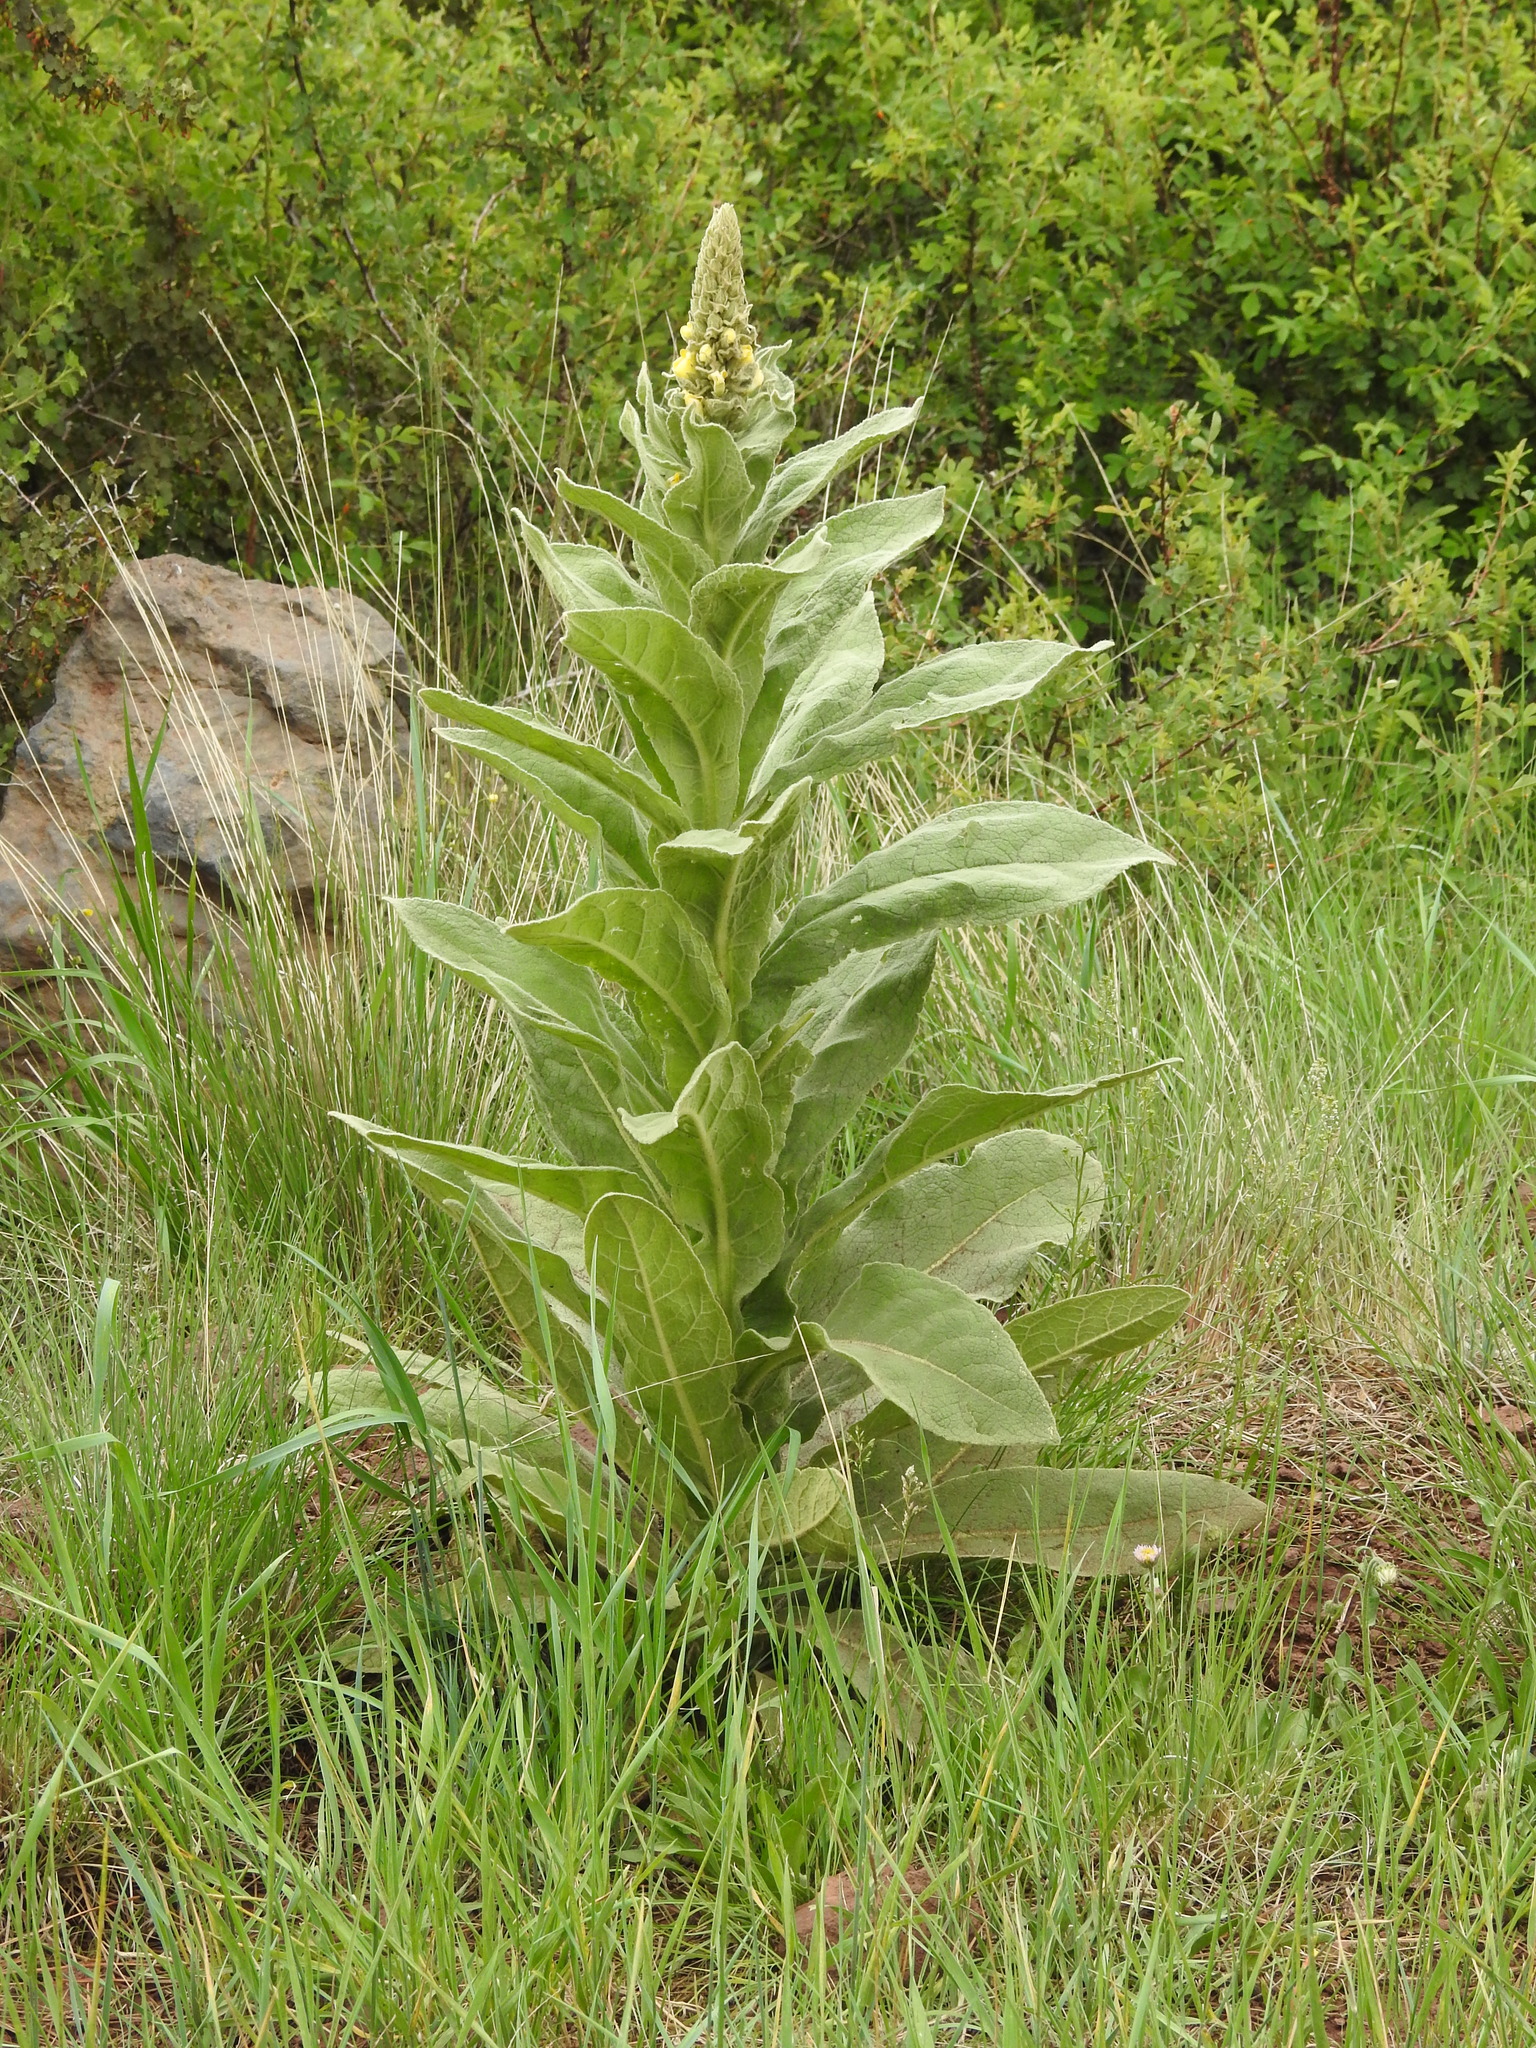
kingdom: Plantae
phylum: Tracheophyta
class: Magnoliopsida
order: Lamiales
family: Scrophulariaceae
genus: Verbascum
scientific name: Verbascum thapsus
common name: Common mullein
